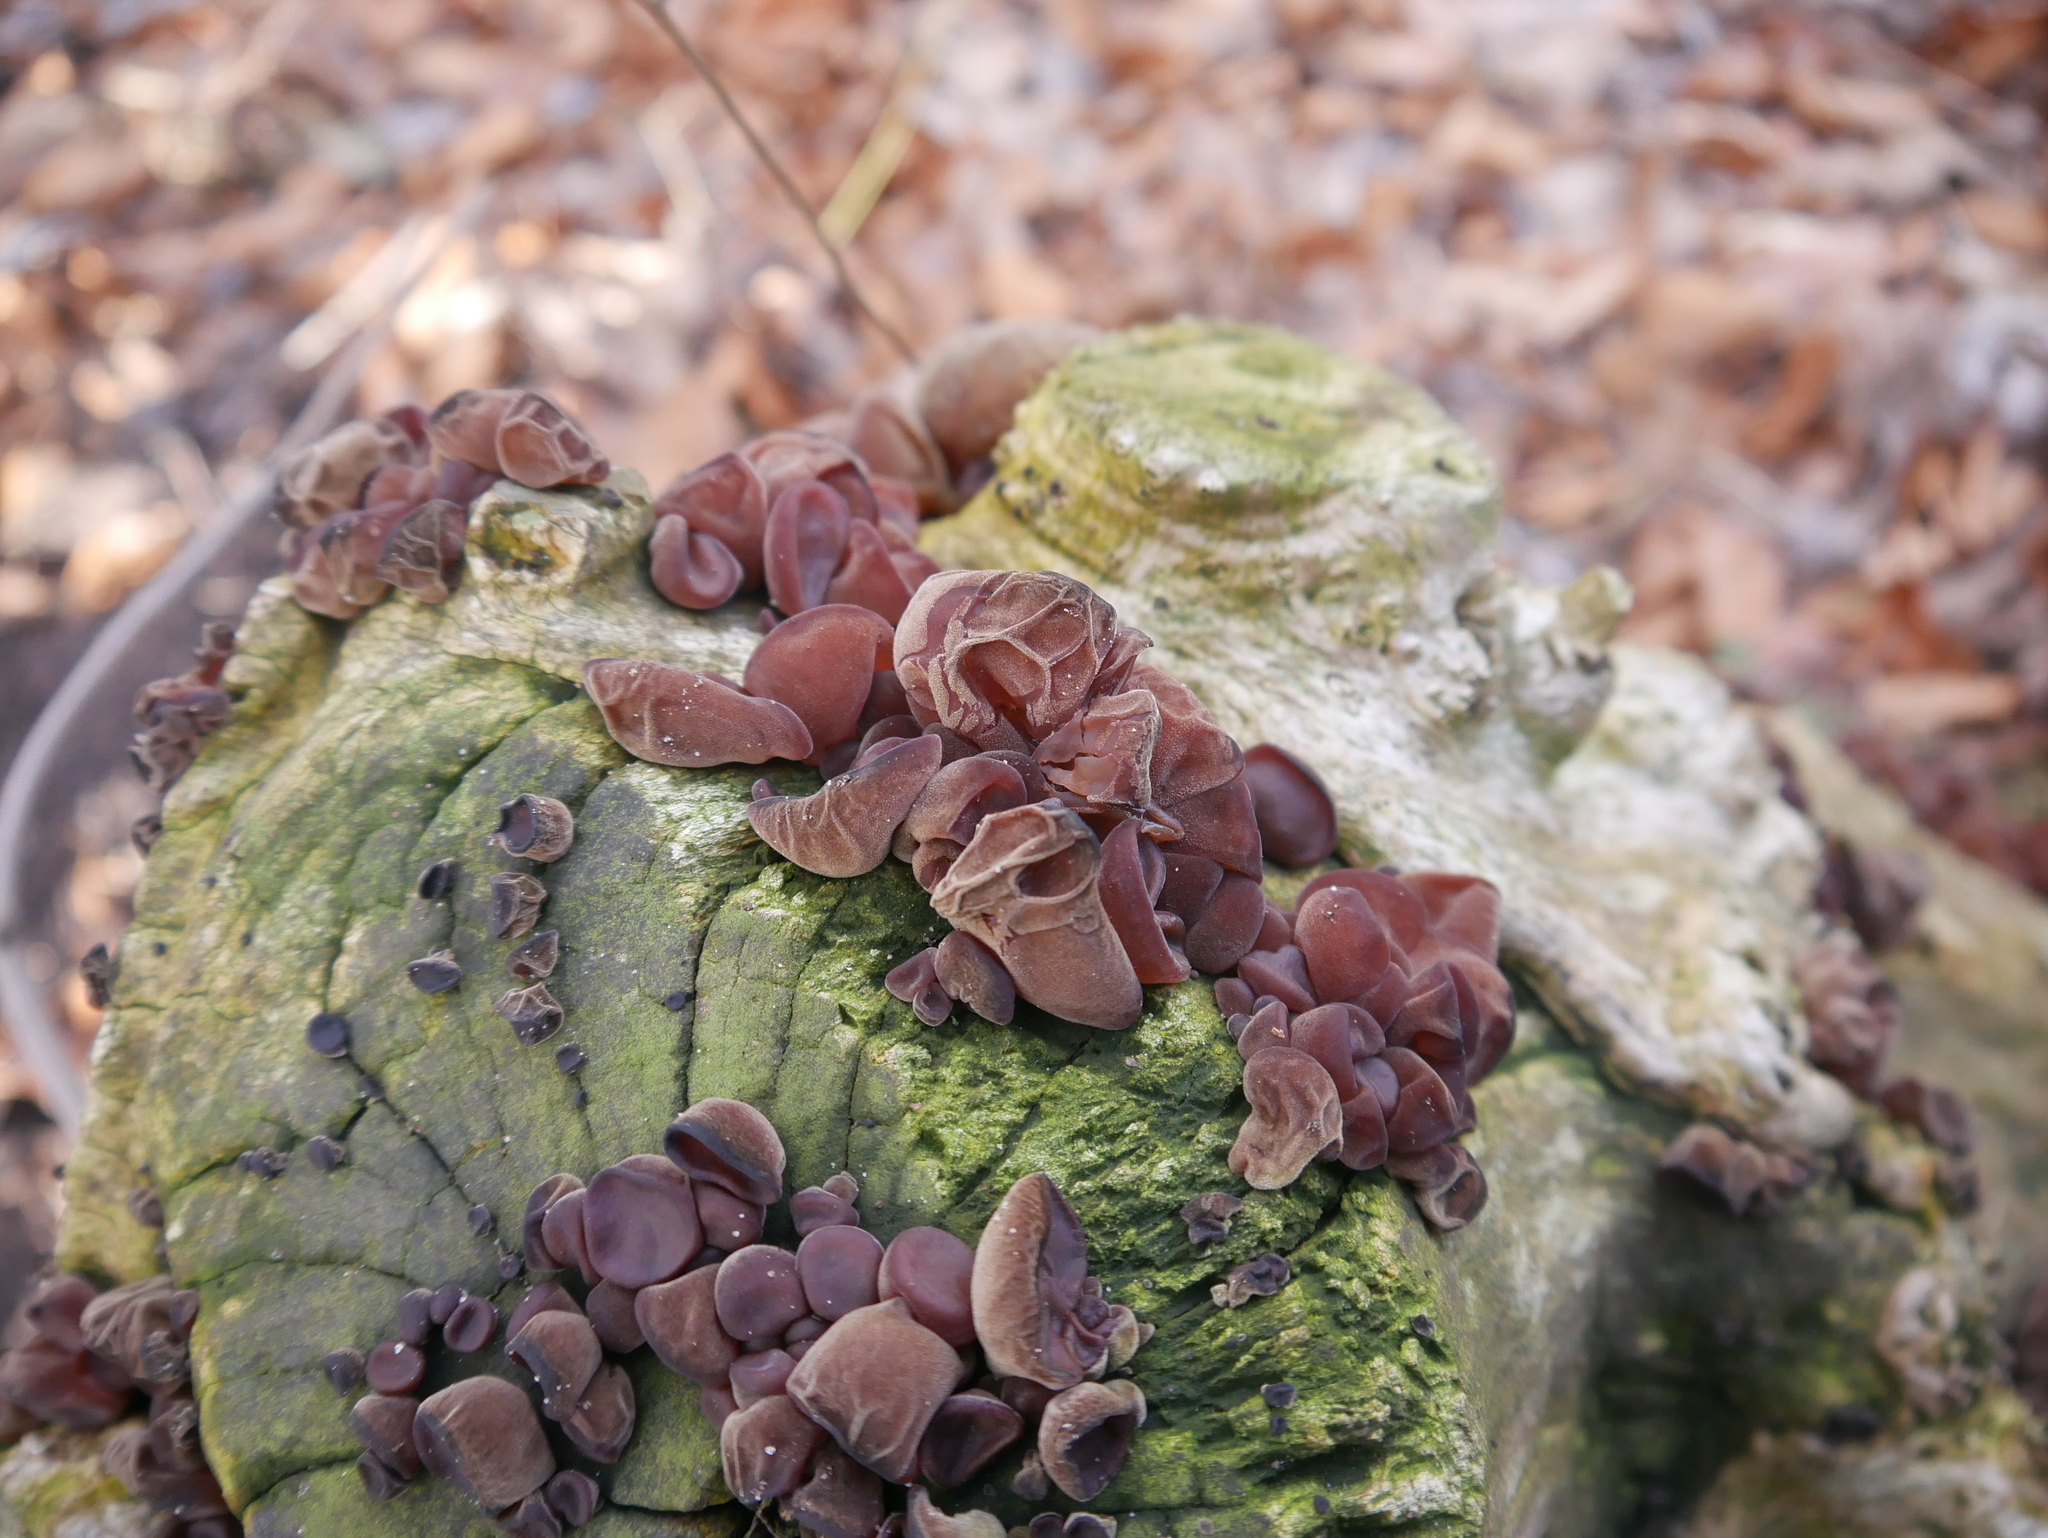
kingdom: Fungi
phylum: Basidiomycota
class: Agaricomycetes
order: Auriculariales
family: Auriculariaceae
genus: Auricularia
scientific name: Auricularia auricula-judae
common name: Jelly ear
